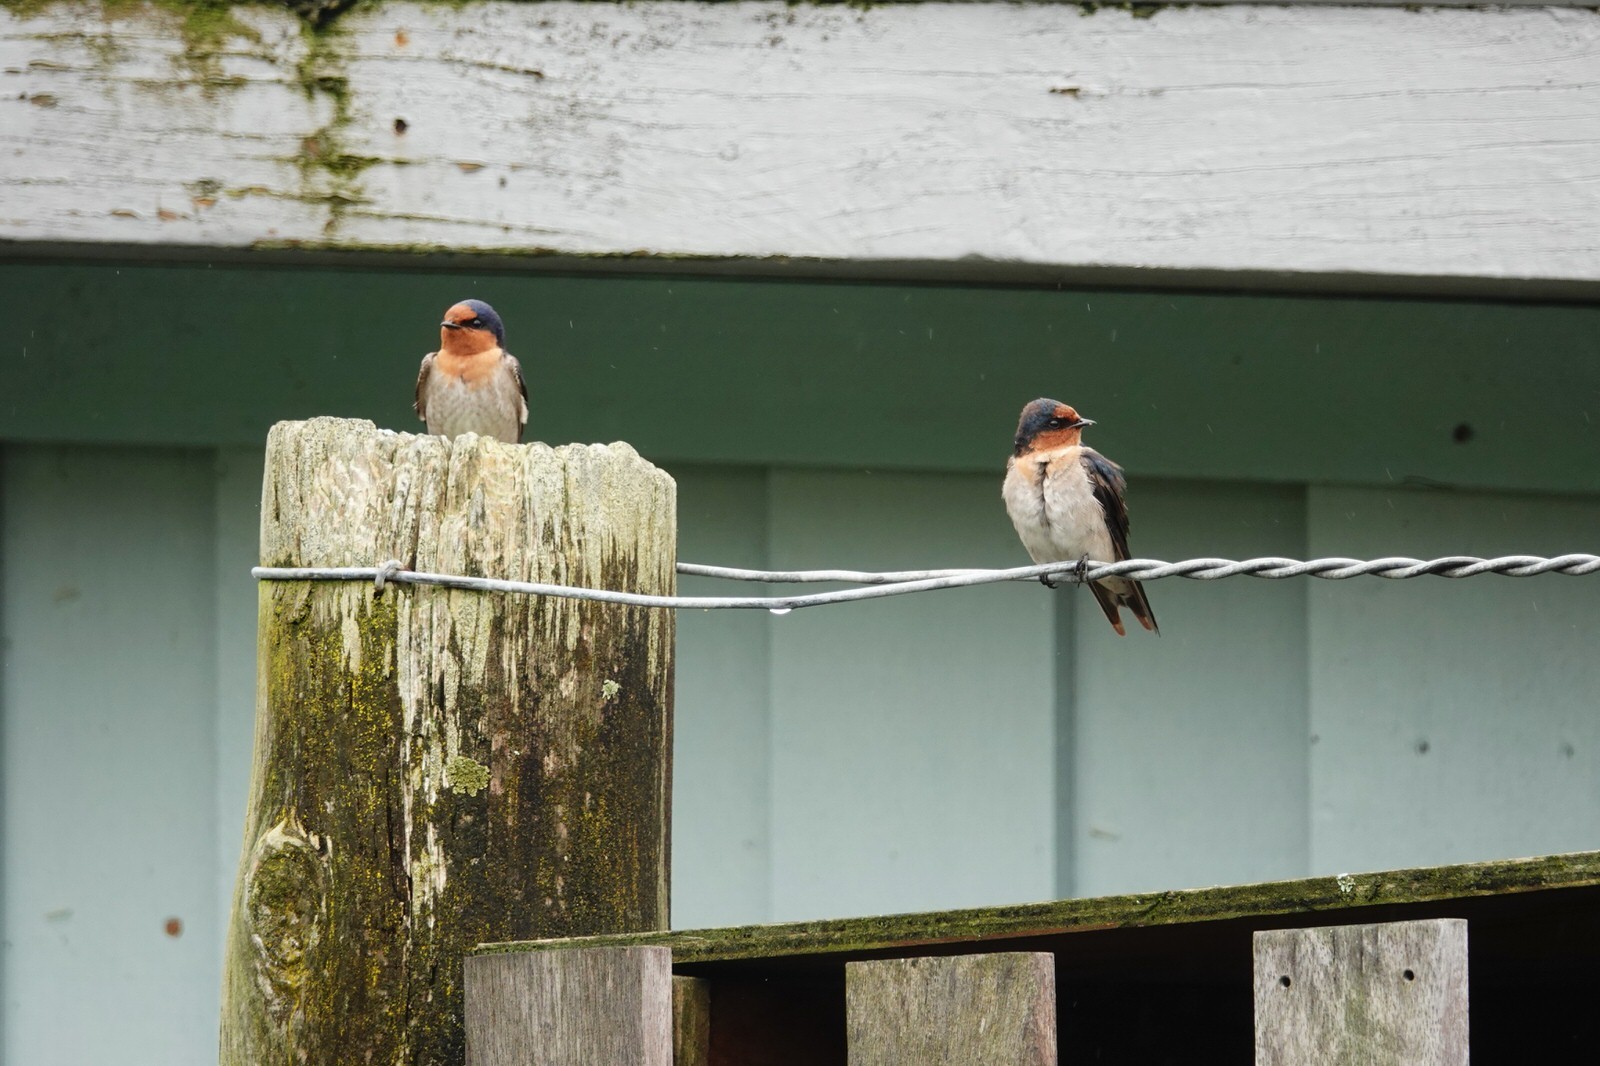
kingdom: Animalia
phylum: Chordata
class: Aves
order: Passeriformes
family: Hirundinidae
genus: Hirundo
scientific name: Hirundo neoxena
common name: Welcome swallow
